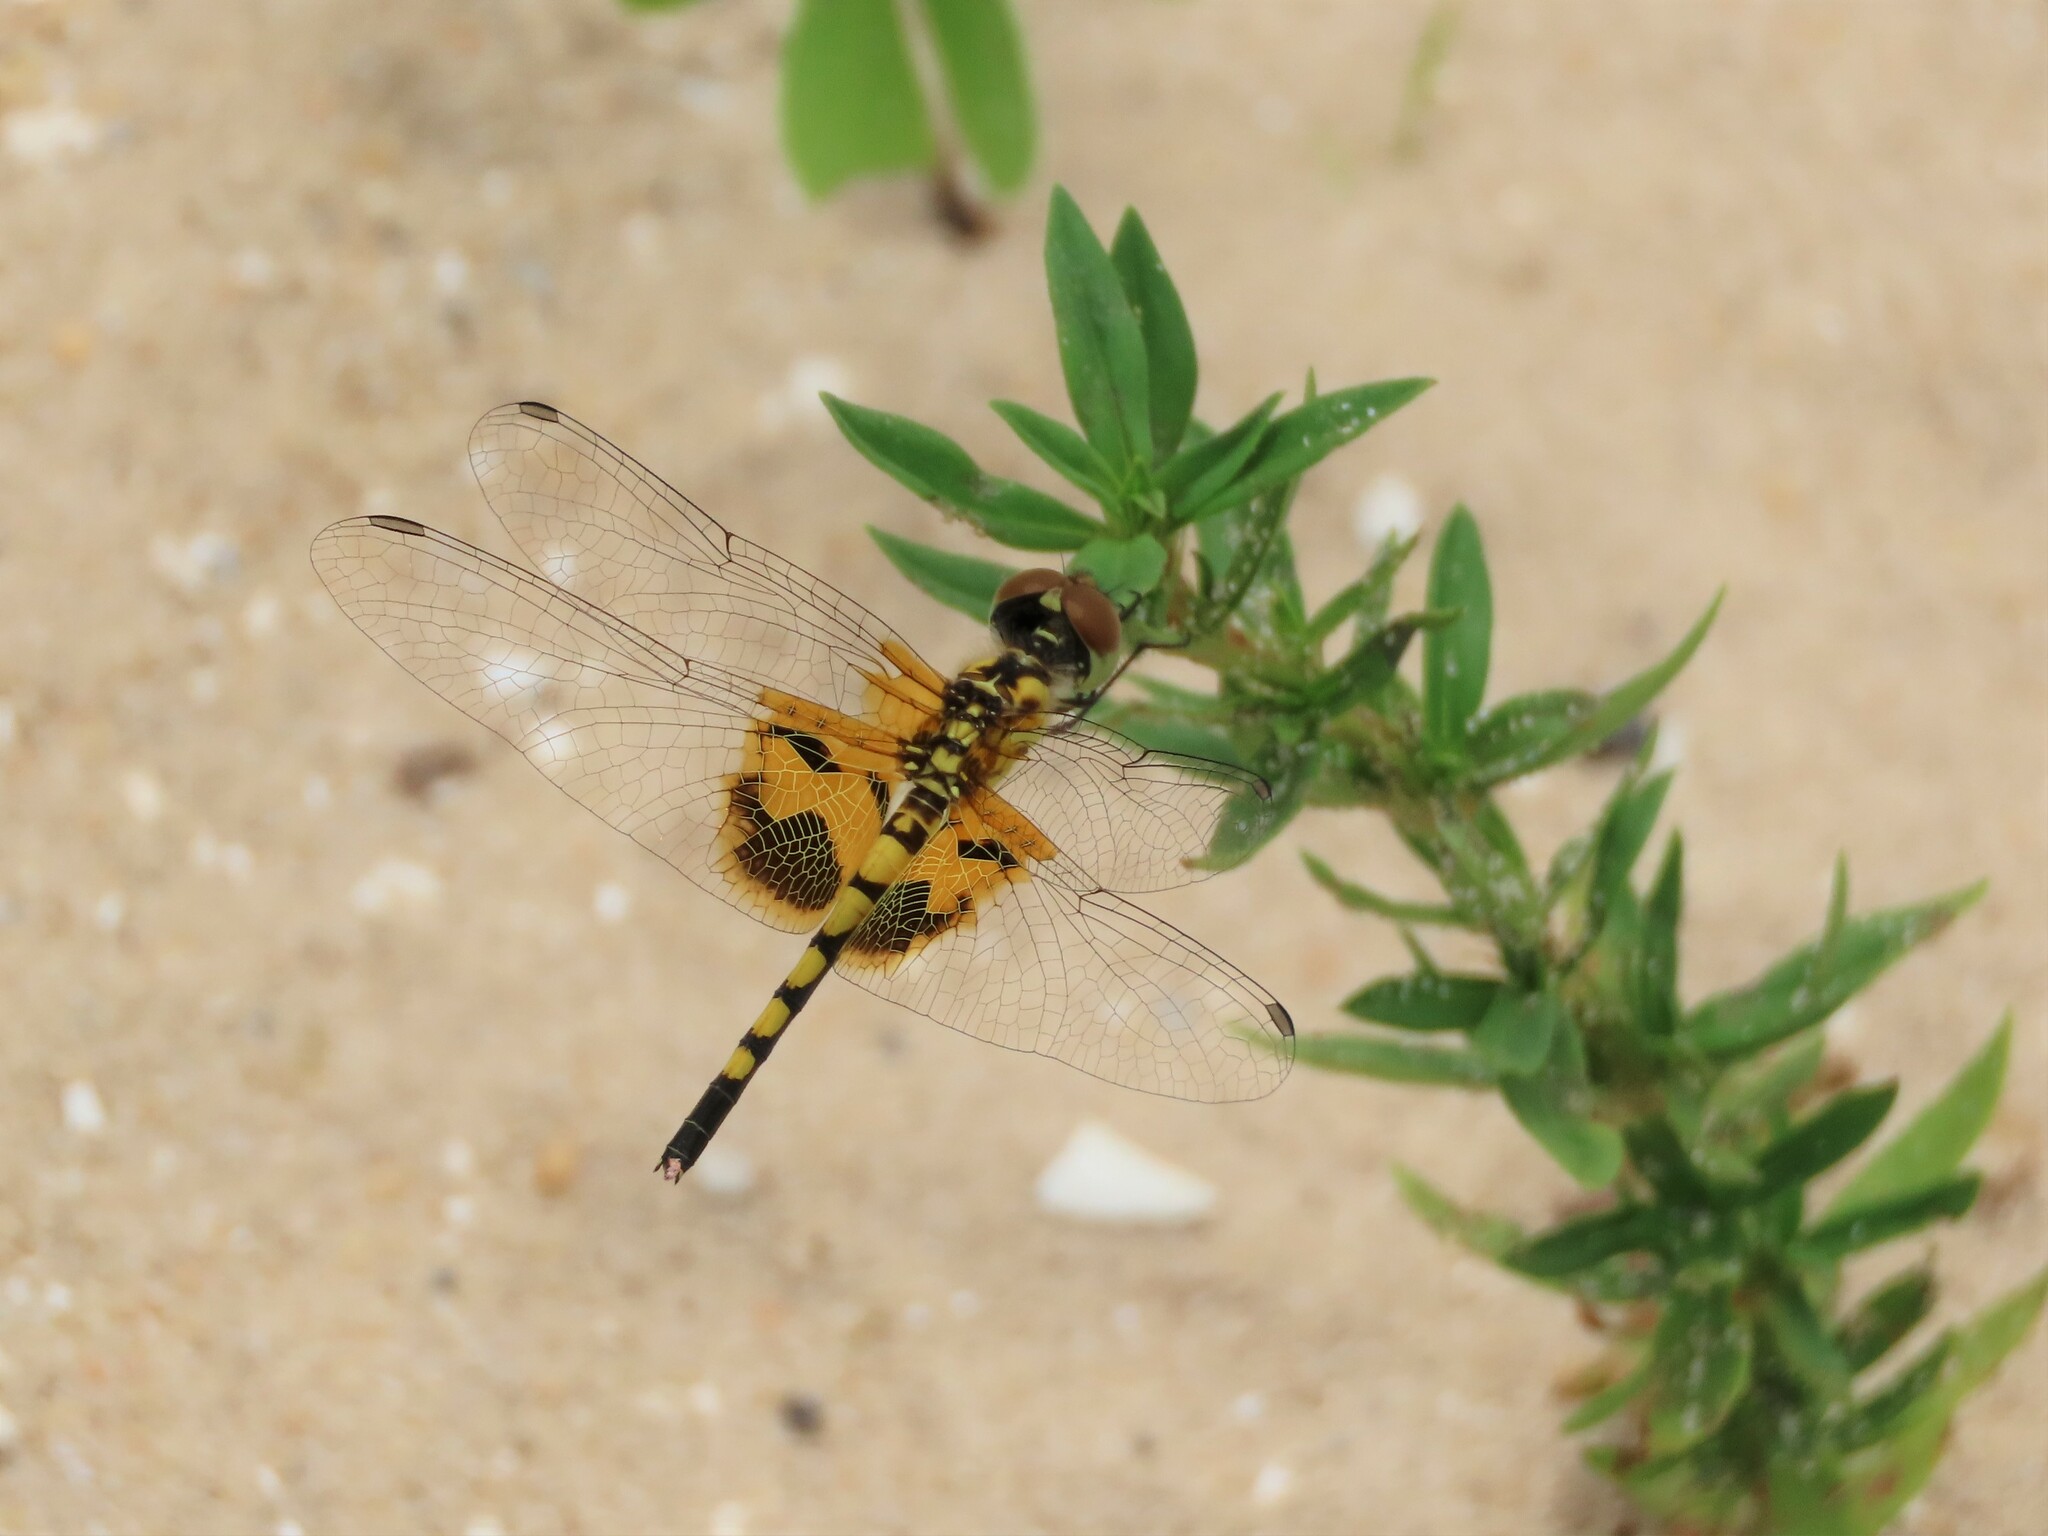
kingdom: Animalia
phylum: Arthropoda
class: Insecta
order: Odonata
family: Libellulidae
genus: Celithemis
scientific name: Celithemis amanda
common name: Amanda's pennant
